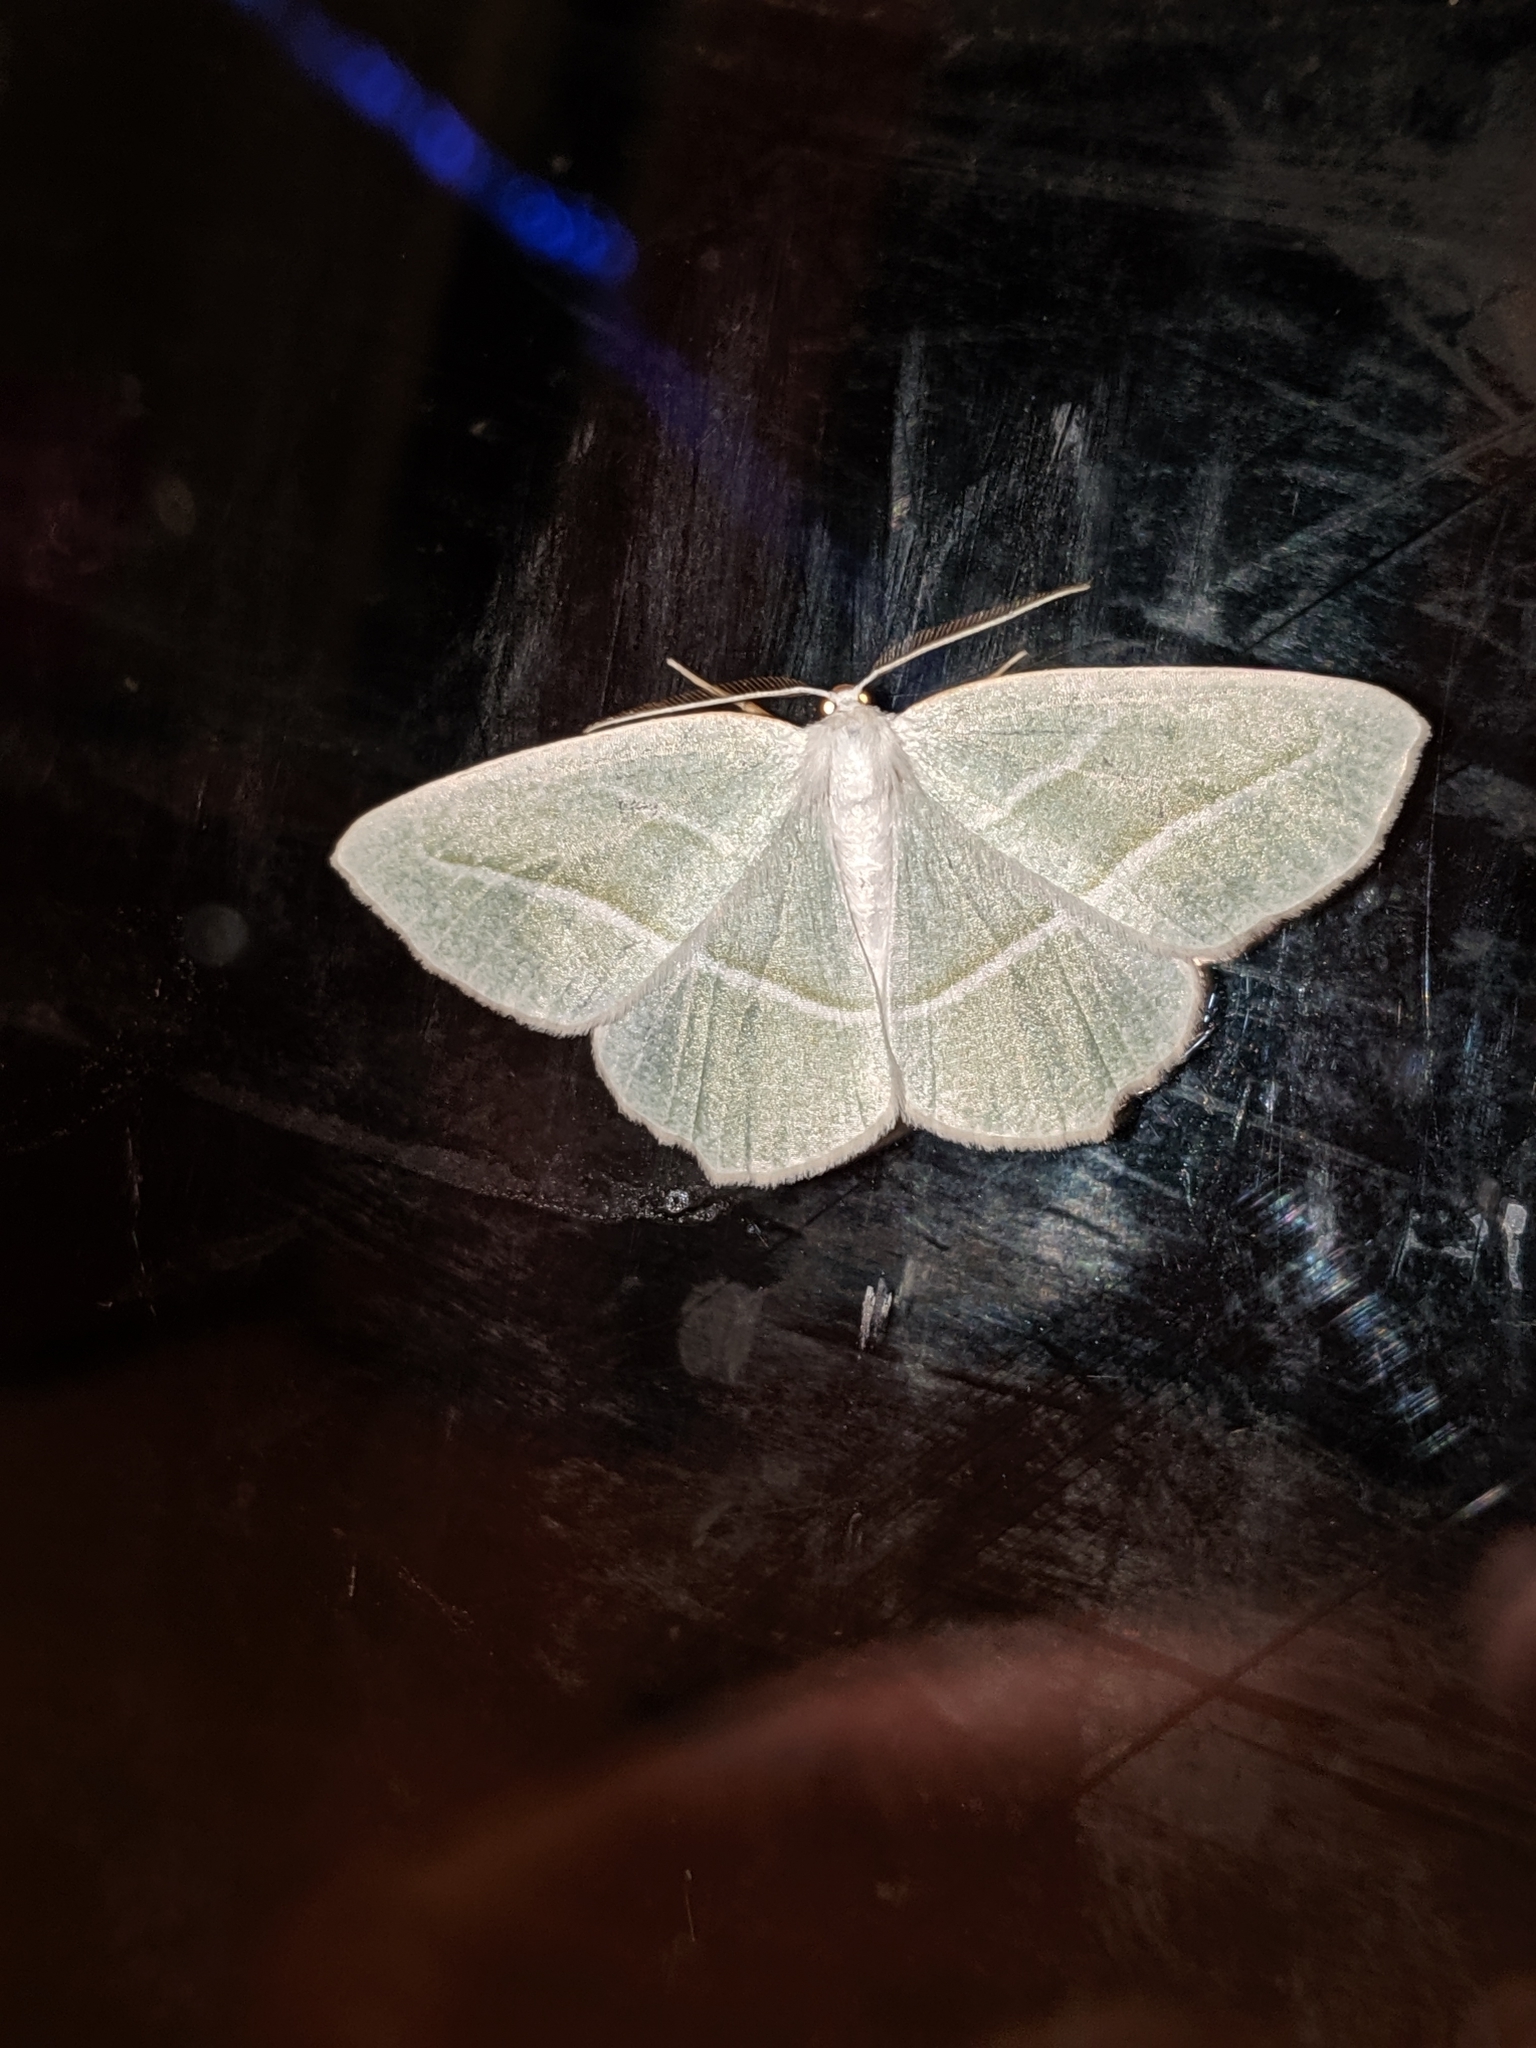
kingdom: Animalia
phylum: Arthropoda
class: Insecta
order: Lepidoptera
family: Geometridae
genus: Campaea
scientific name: Campaea perlata
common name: Fringed looper
